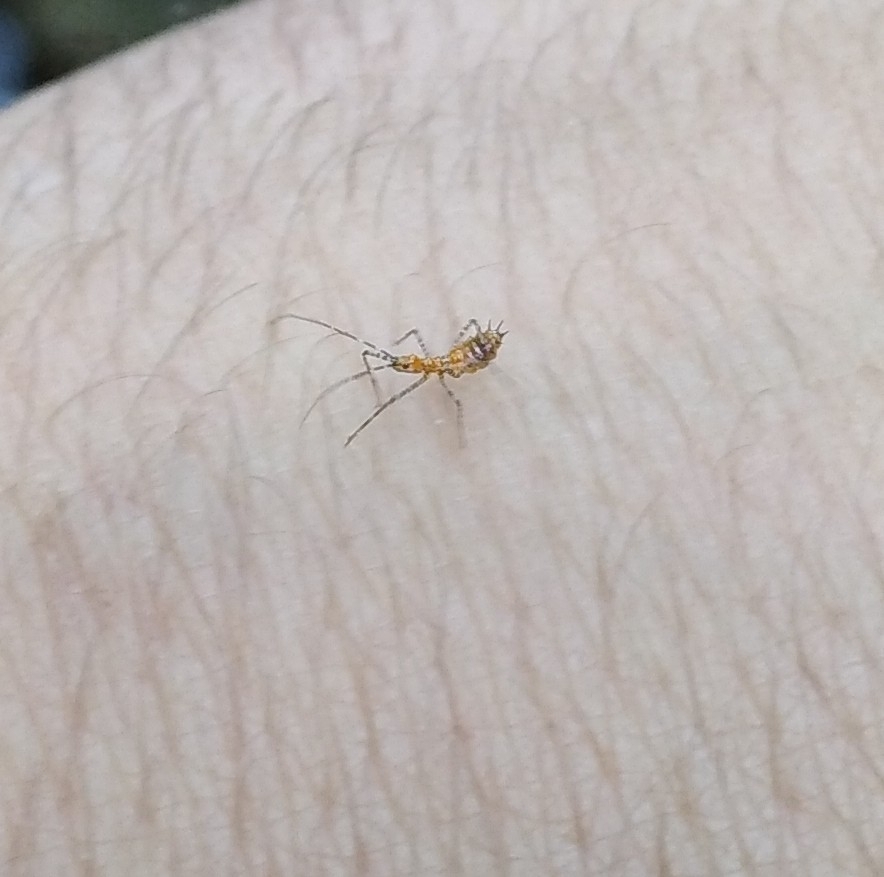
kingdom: Animalia
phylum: Arthropoda
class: Insecta
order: Hemiptera
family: Reduviidae
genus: Zelus
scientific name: Zelus renardii
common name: Assassin bug
